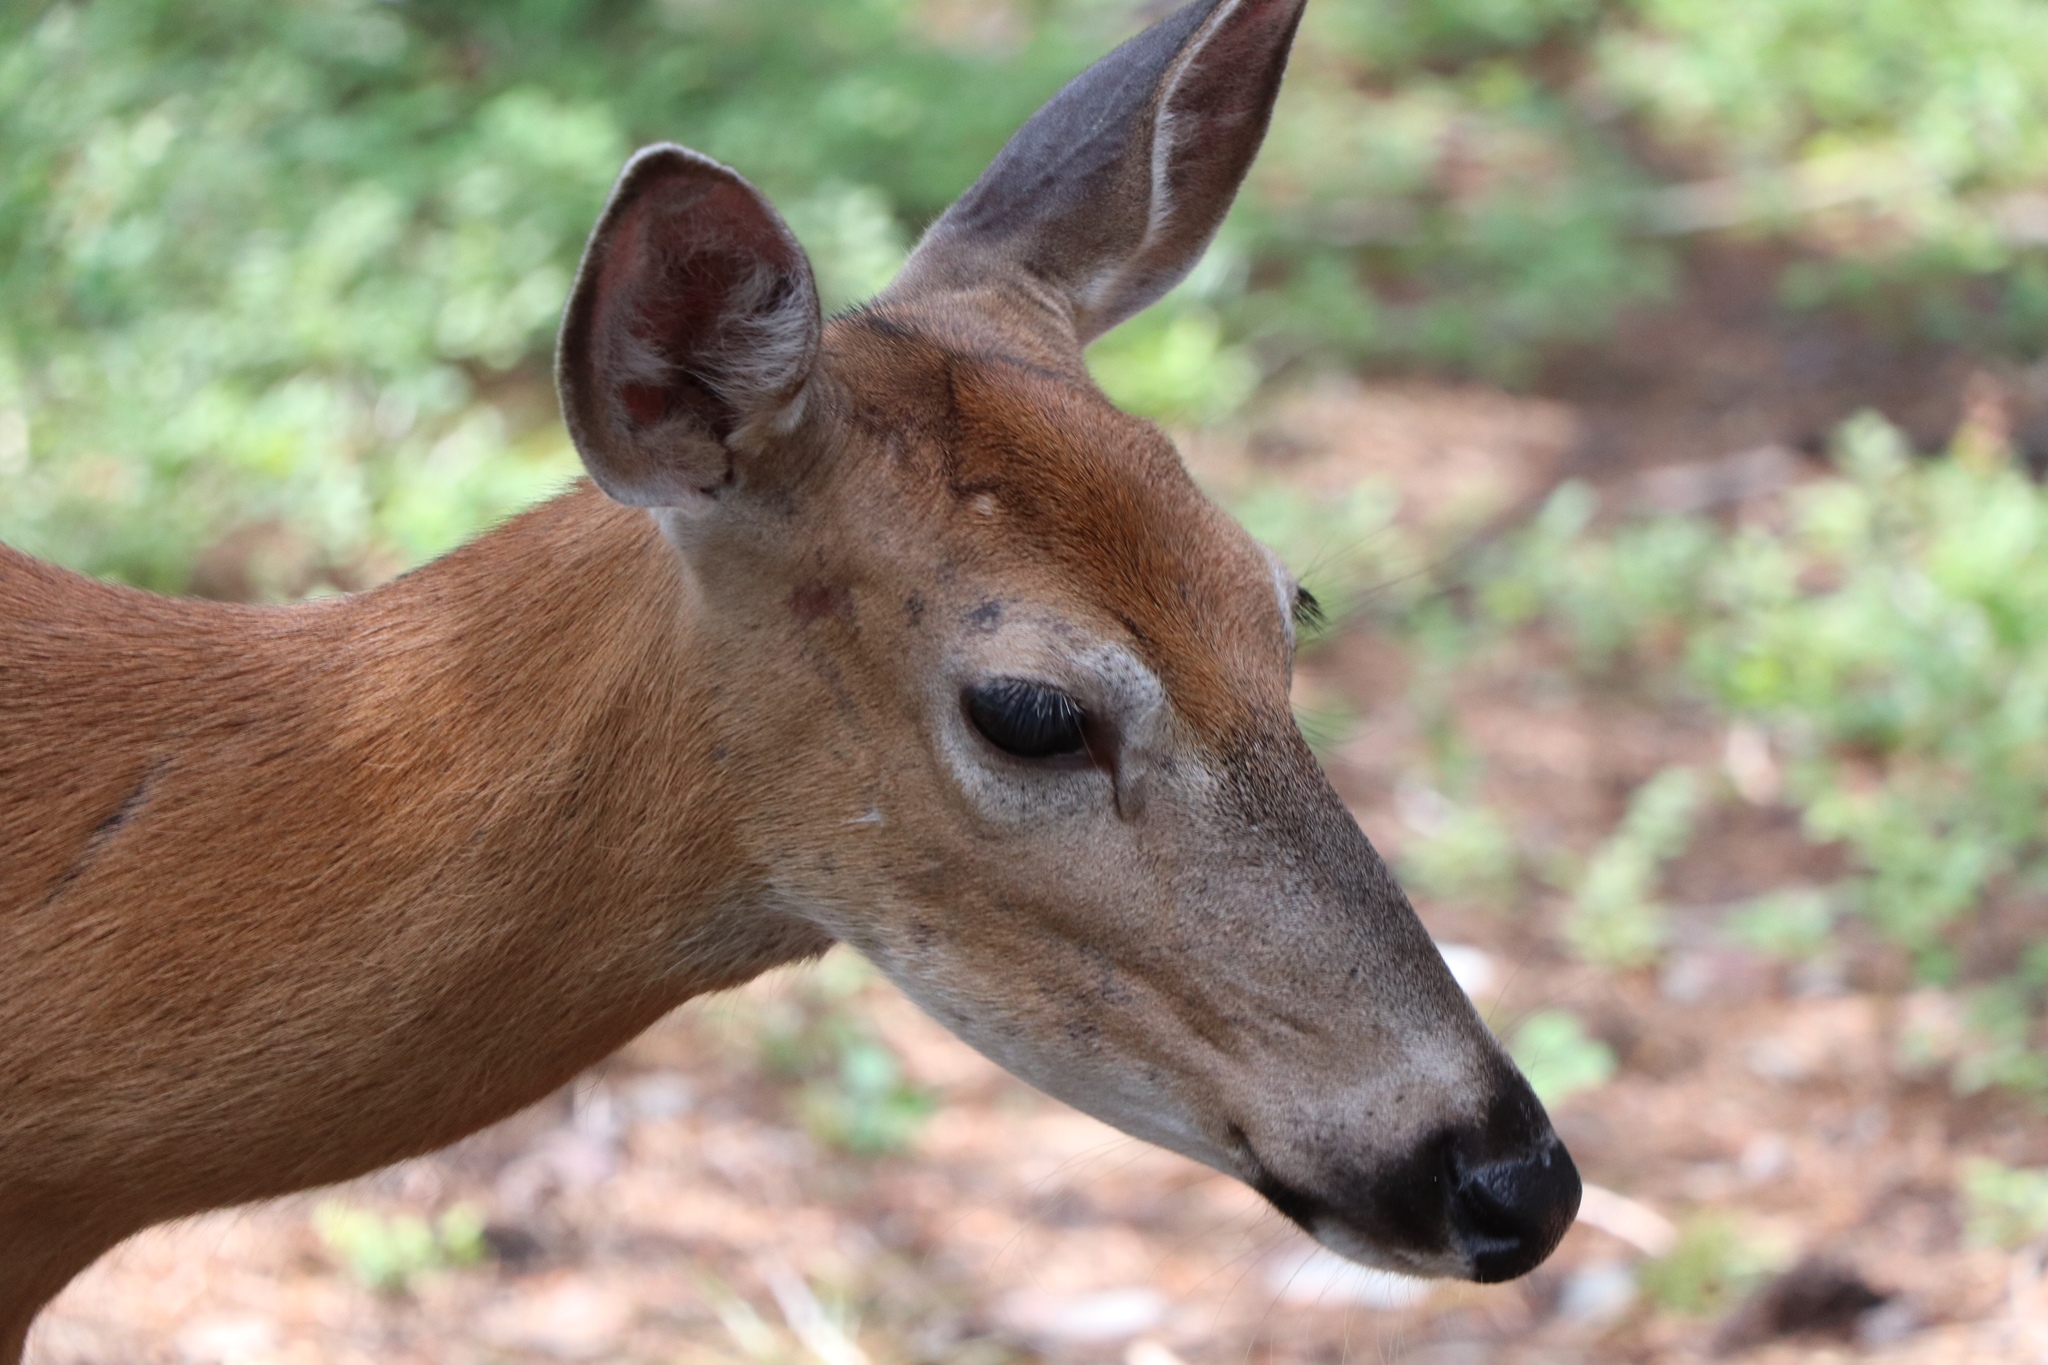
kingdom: Animalia
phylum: Chordata
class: Mammalia
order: Artiodactyla
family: Cervidae
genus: Odocoileus
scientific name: Odocoileus hemionus
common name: Mule deer
